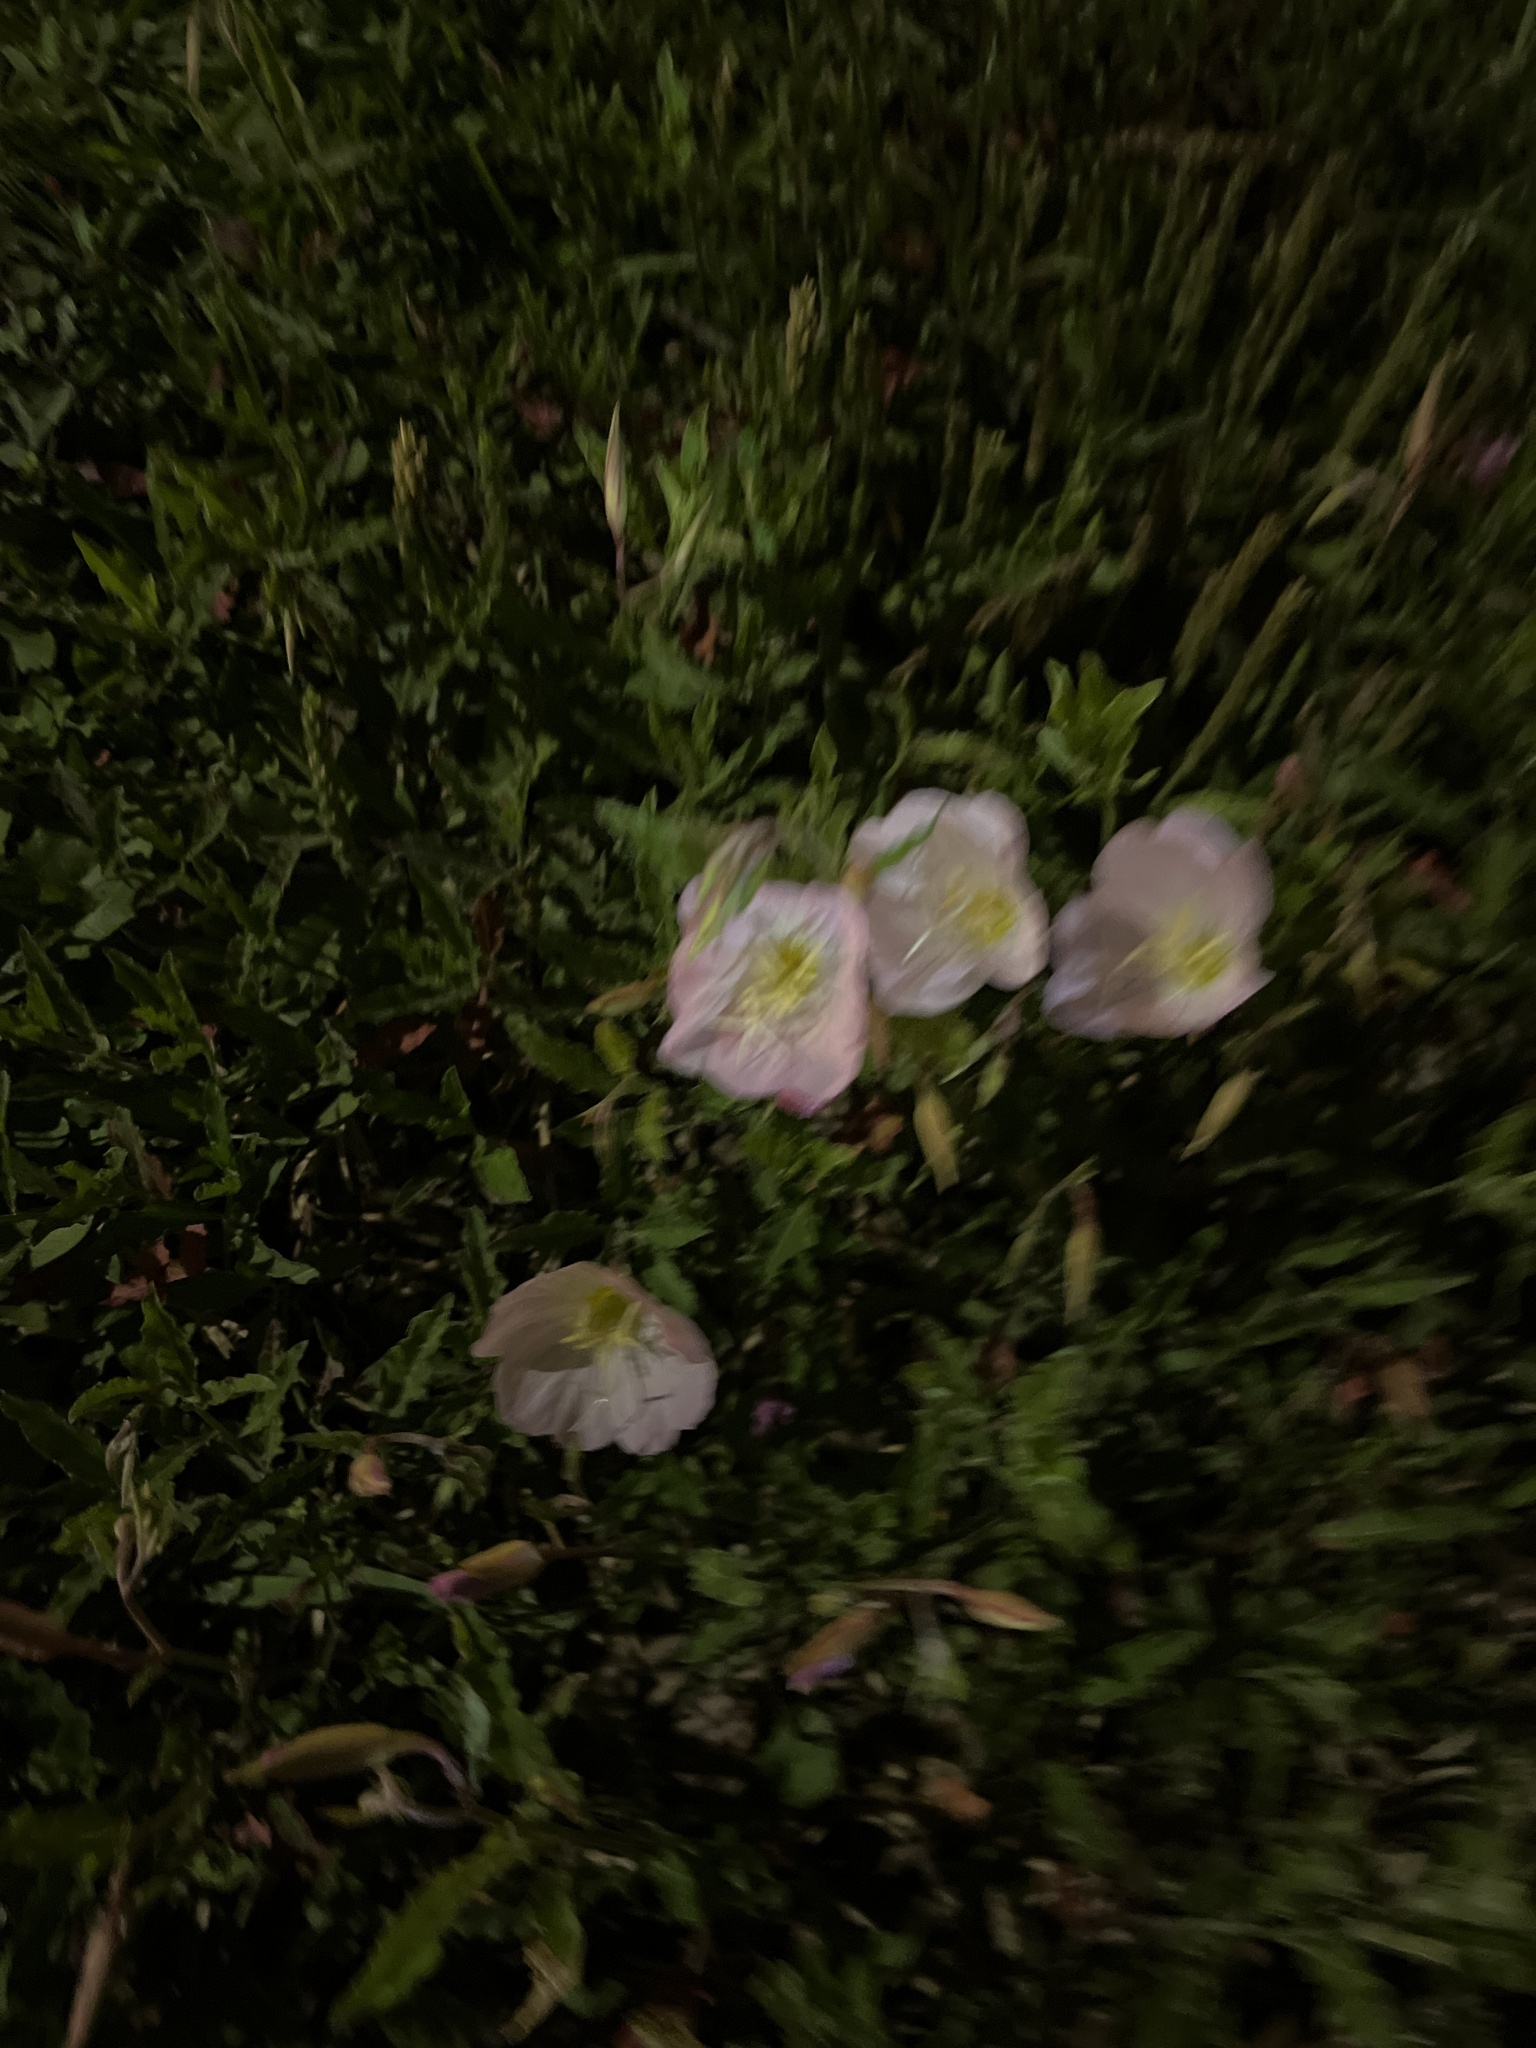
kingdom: Plantae
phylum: Tracheophyta
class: Magnoliopsida
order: Myrtales
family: Onagraceae
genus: Oenothera
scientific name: Oenothera speciosa
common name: White evening-primrose
